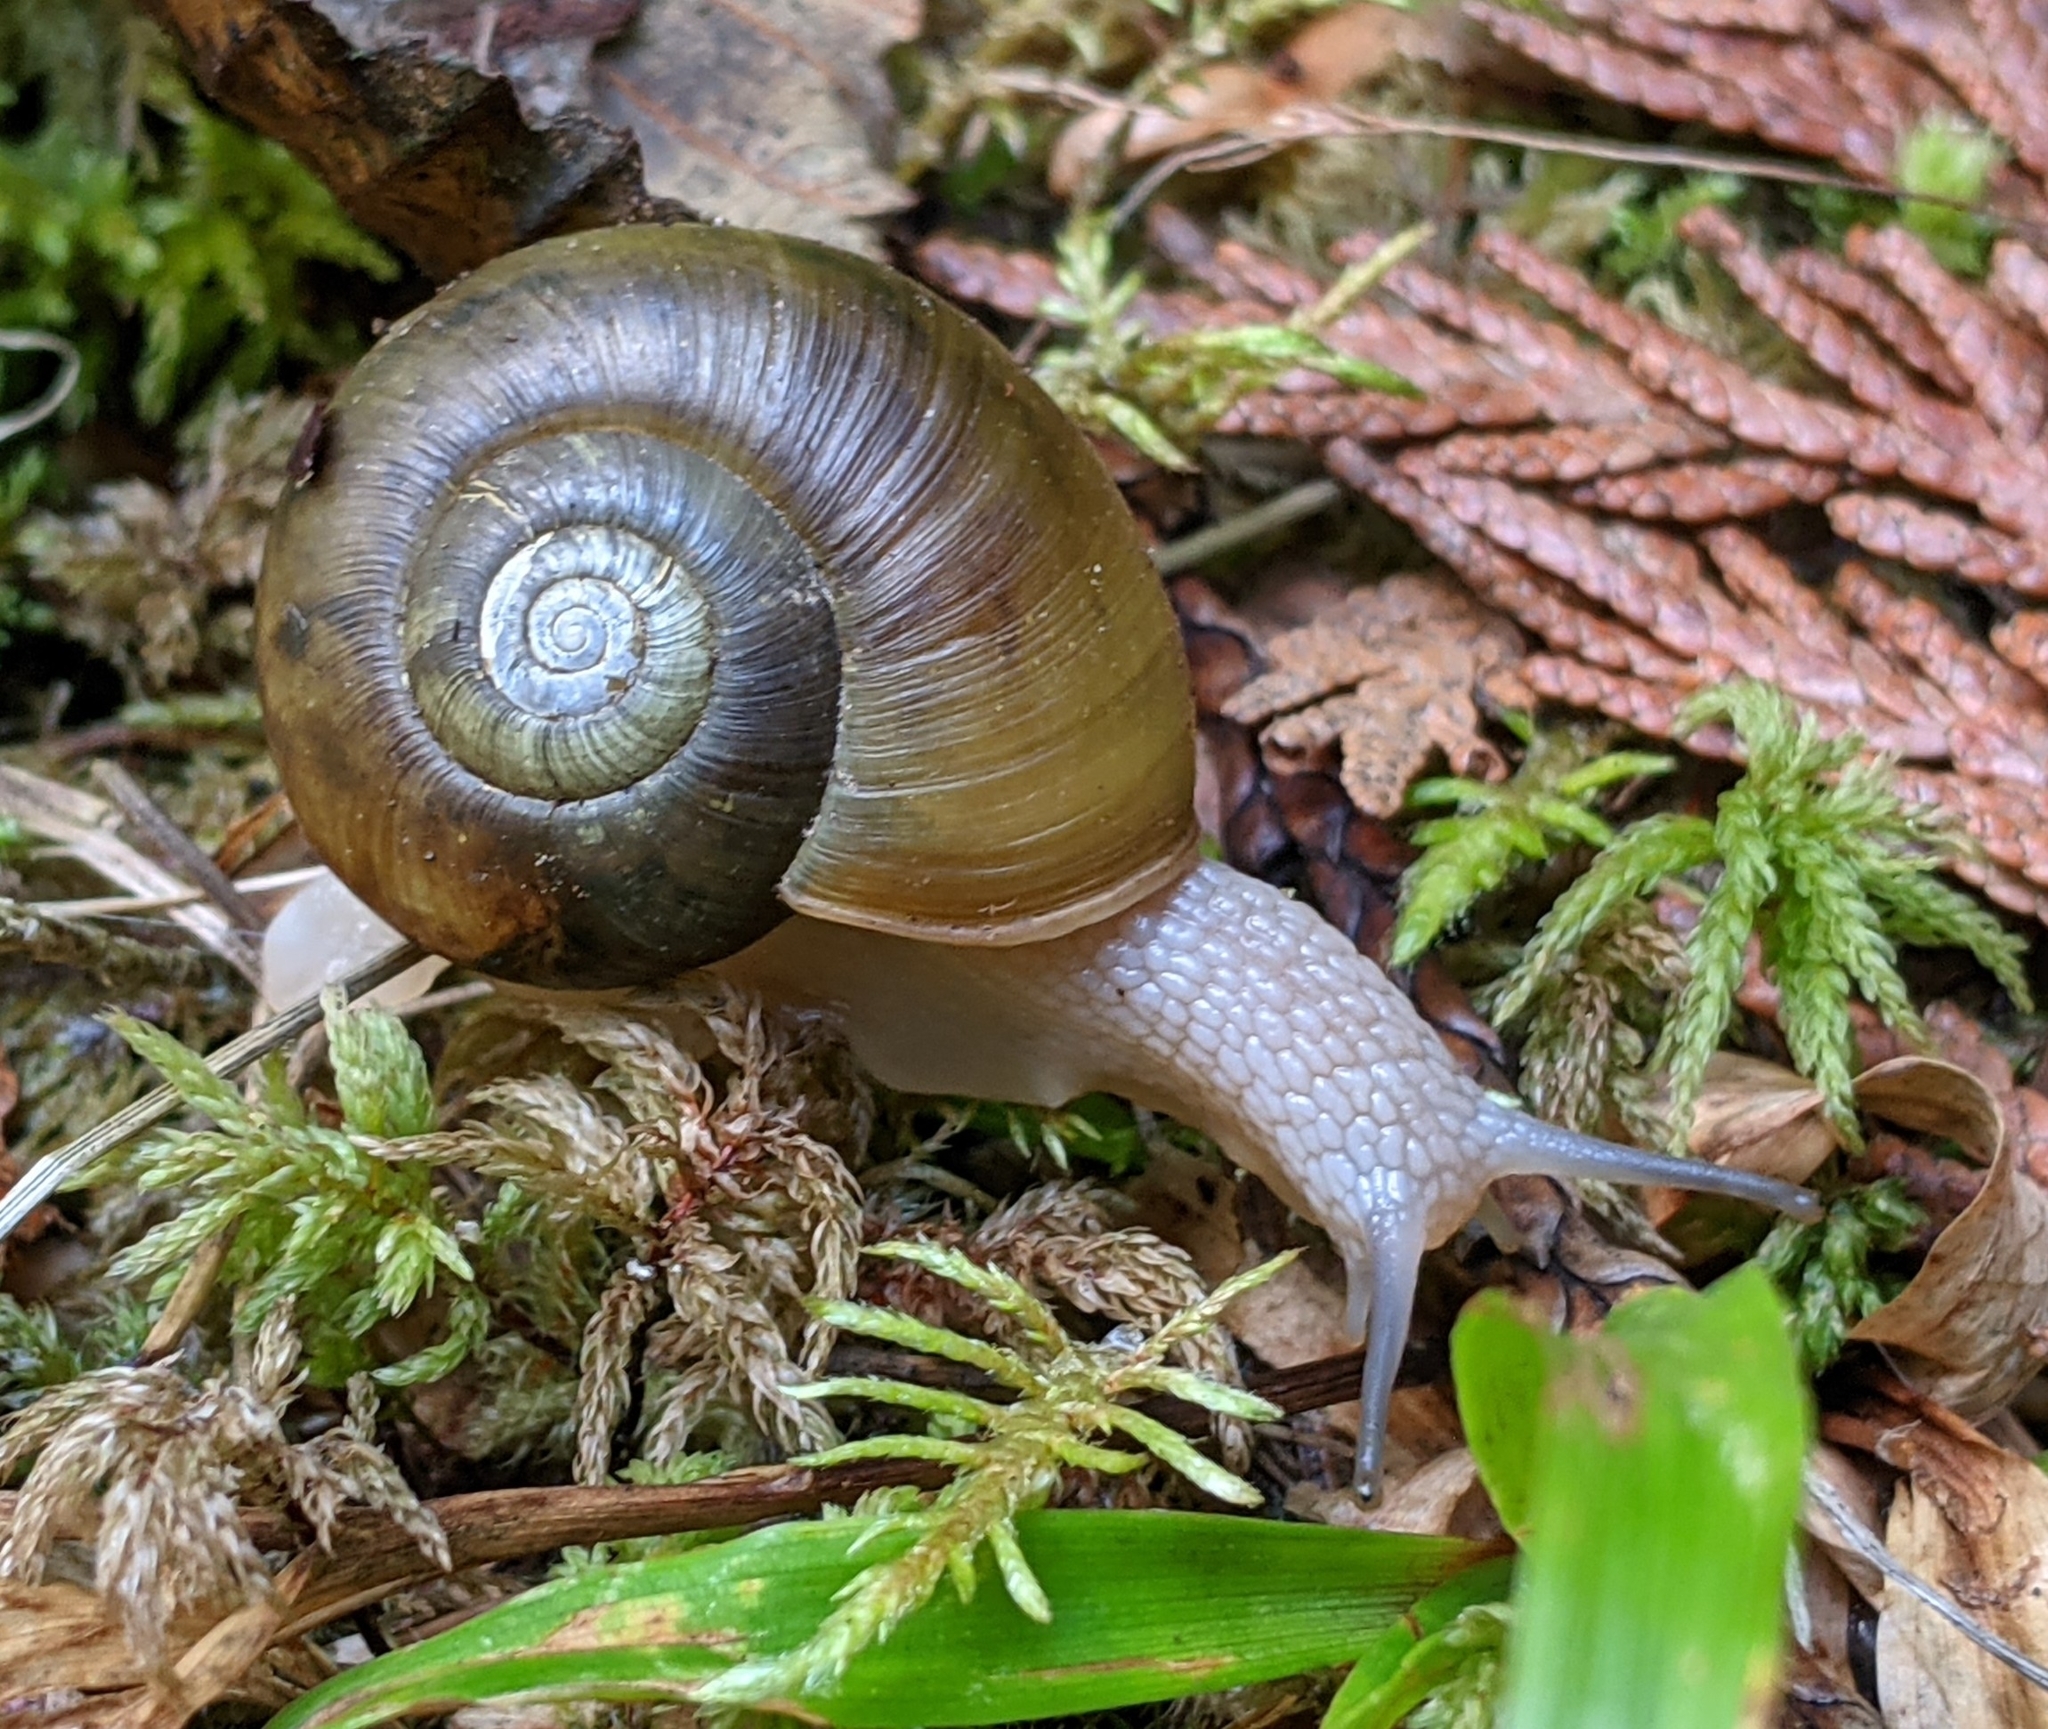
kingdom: Animalia
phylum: Mollusca
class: Gastropoda
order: Stylommatophora
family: Haplotrematidae
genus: Haplotrema
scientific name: Haplotrema vancouverense
